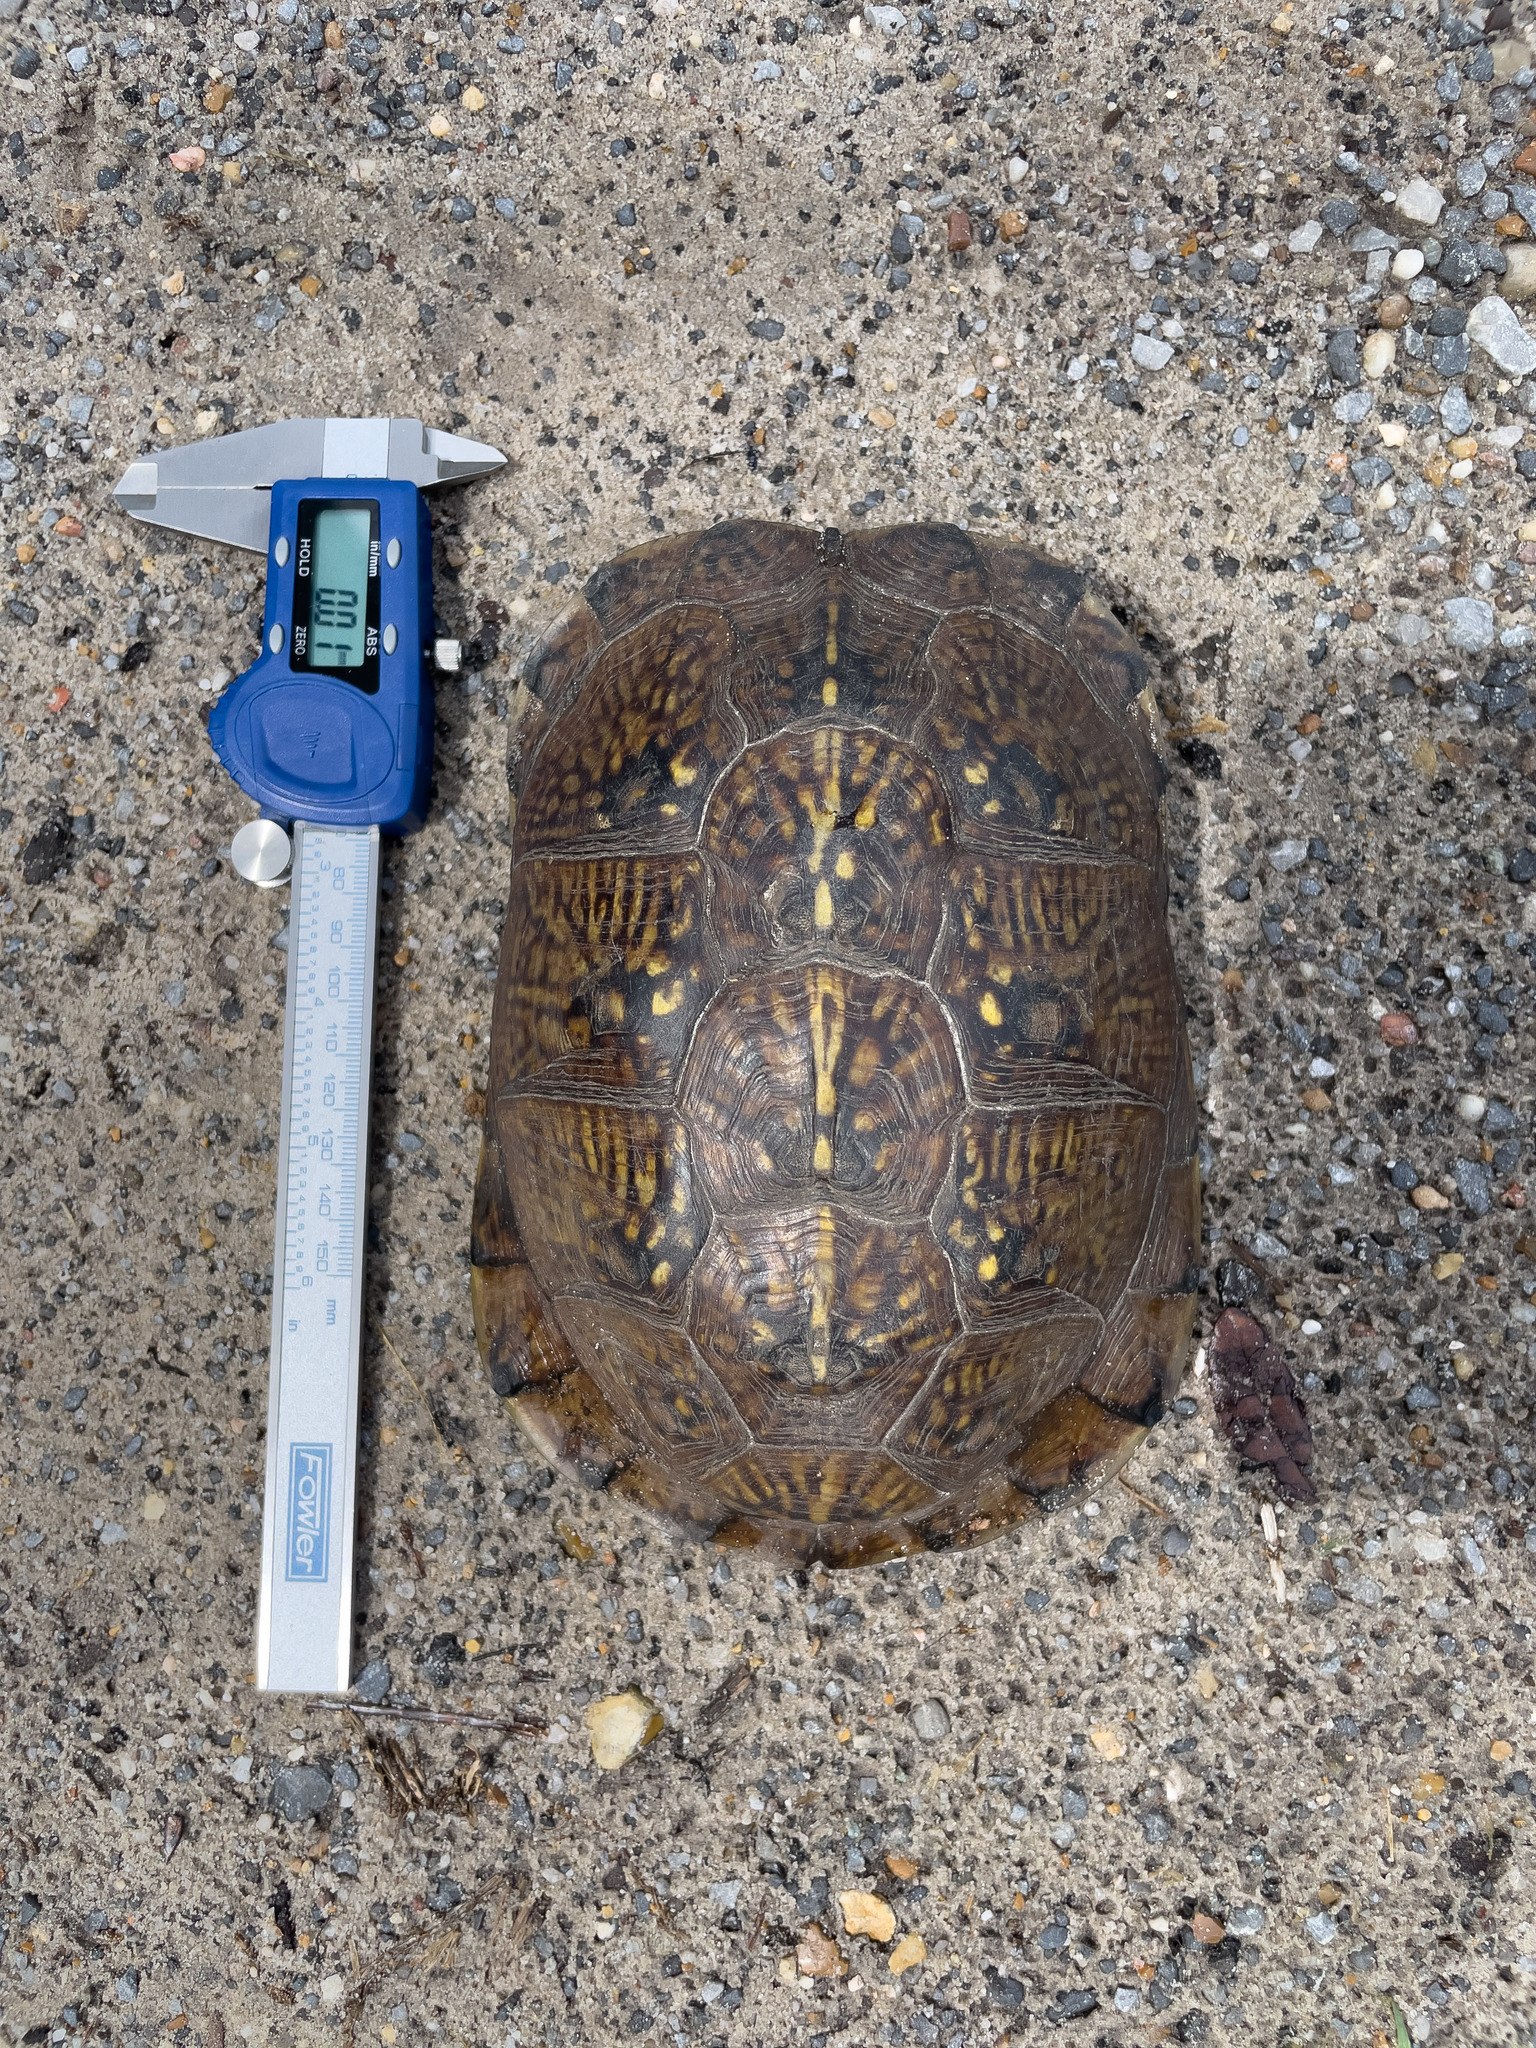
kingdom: Animalia
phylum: Chordata
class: Testudines
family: Emydidae
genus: Terrapene
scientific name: Terrapene carolina
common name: Common box turtle
